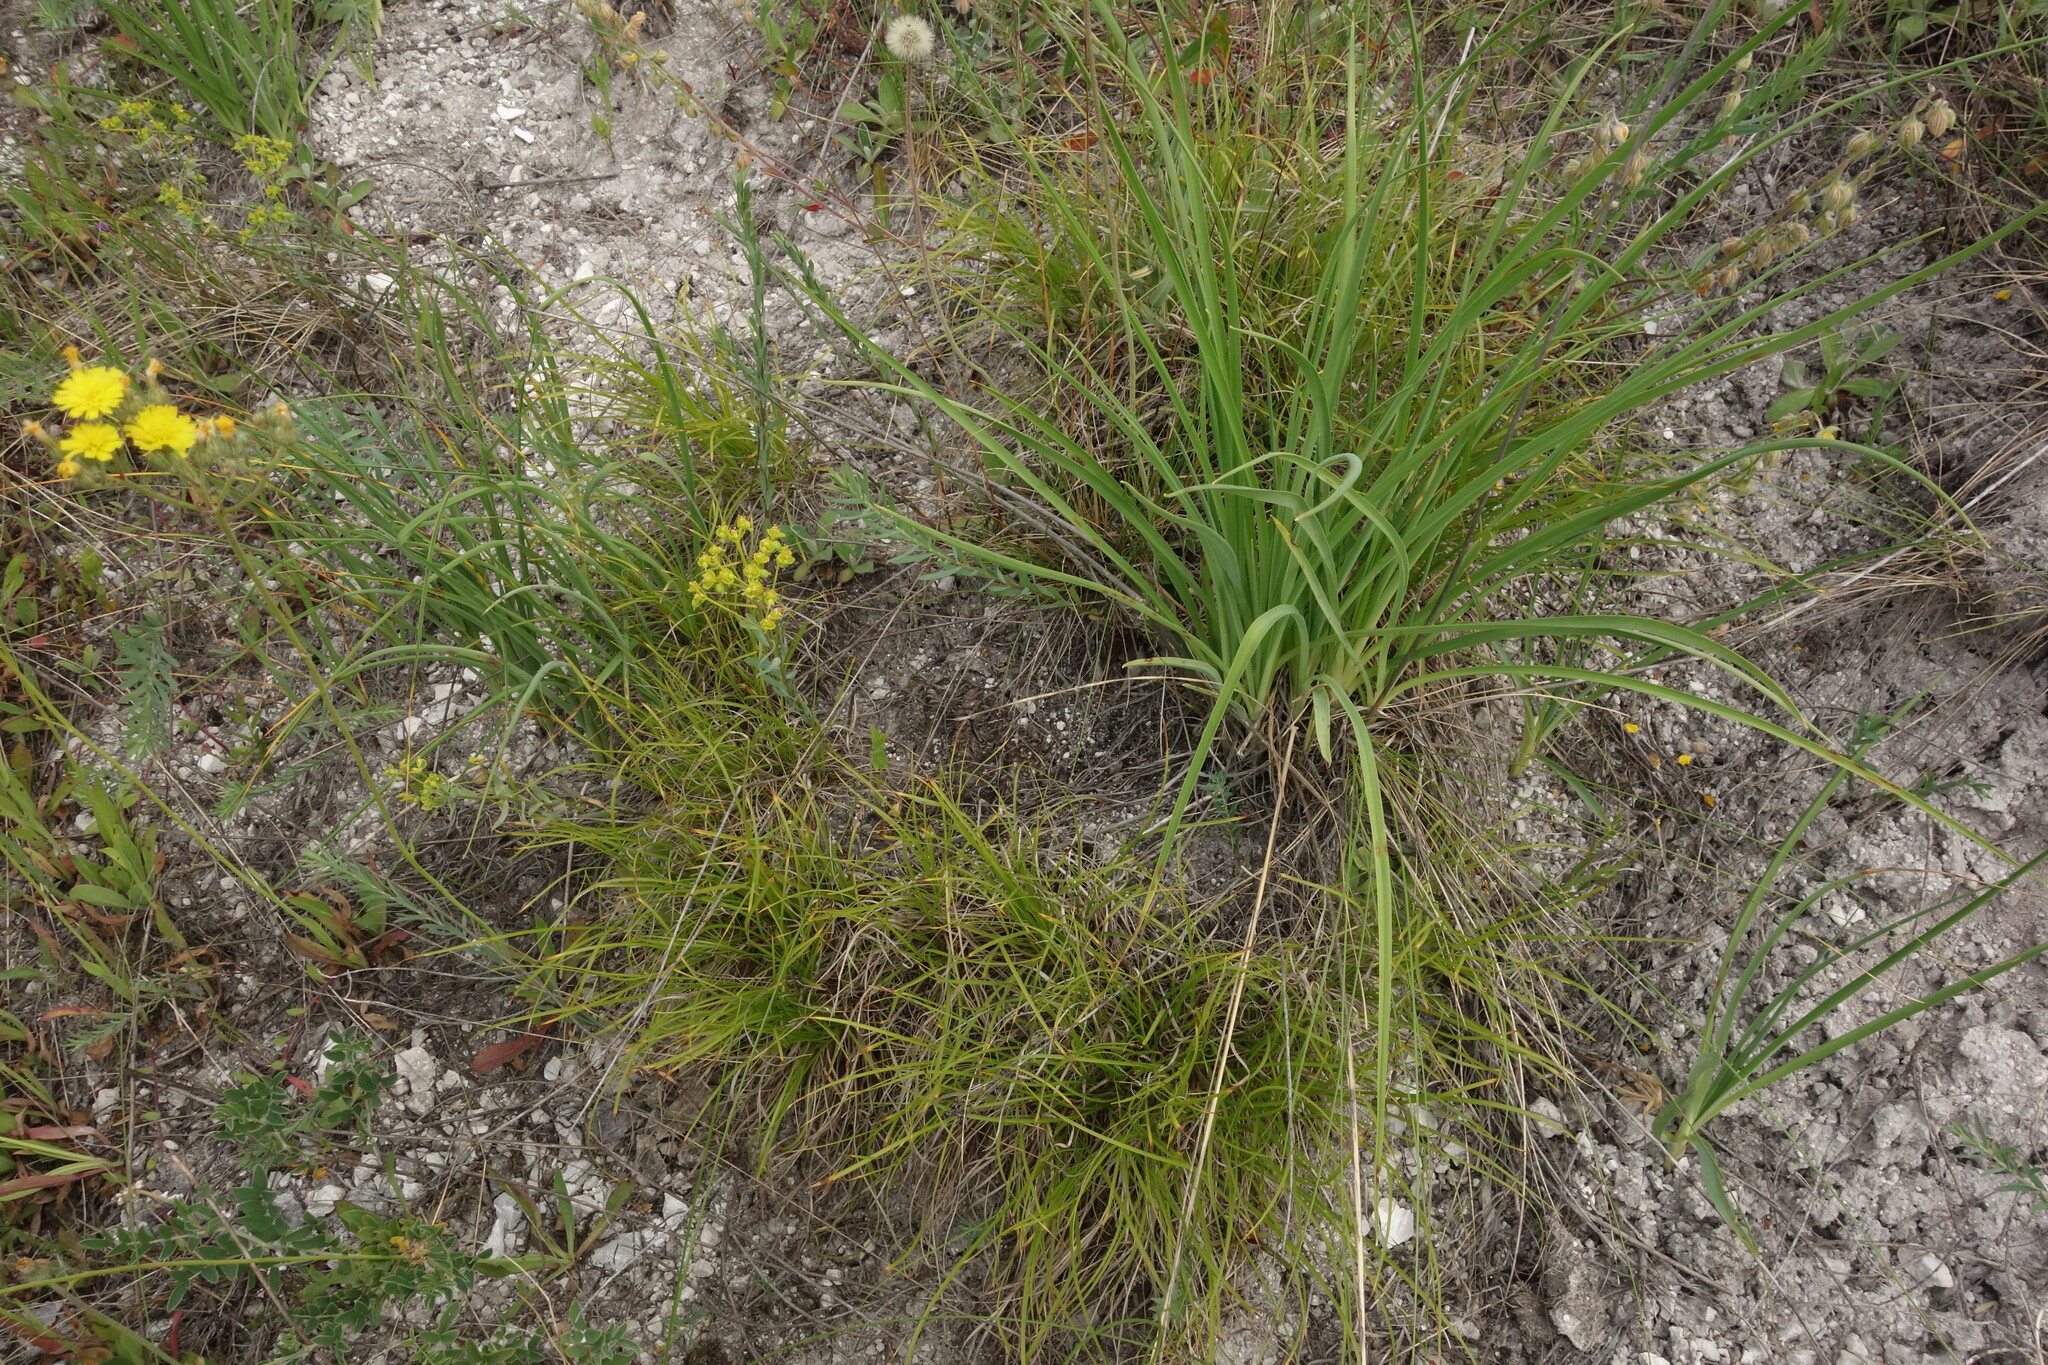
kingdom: Plantae
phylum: Tracheophyta
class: Liliopsida
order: Poales
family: Cyperaceae
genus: Carex
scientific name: Carex humilis
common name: Dwarf sedge
